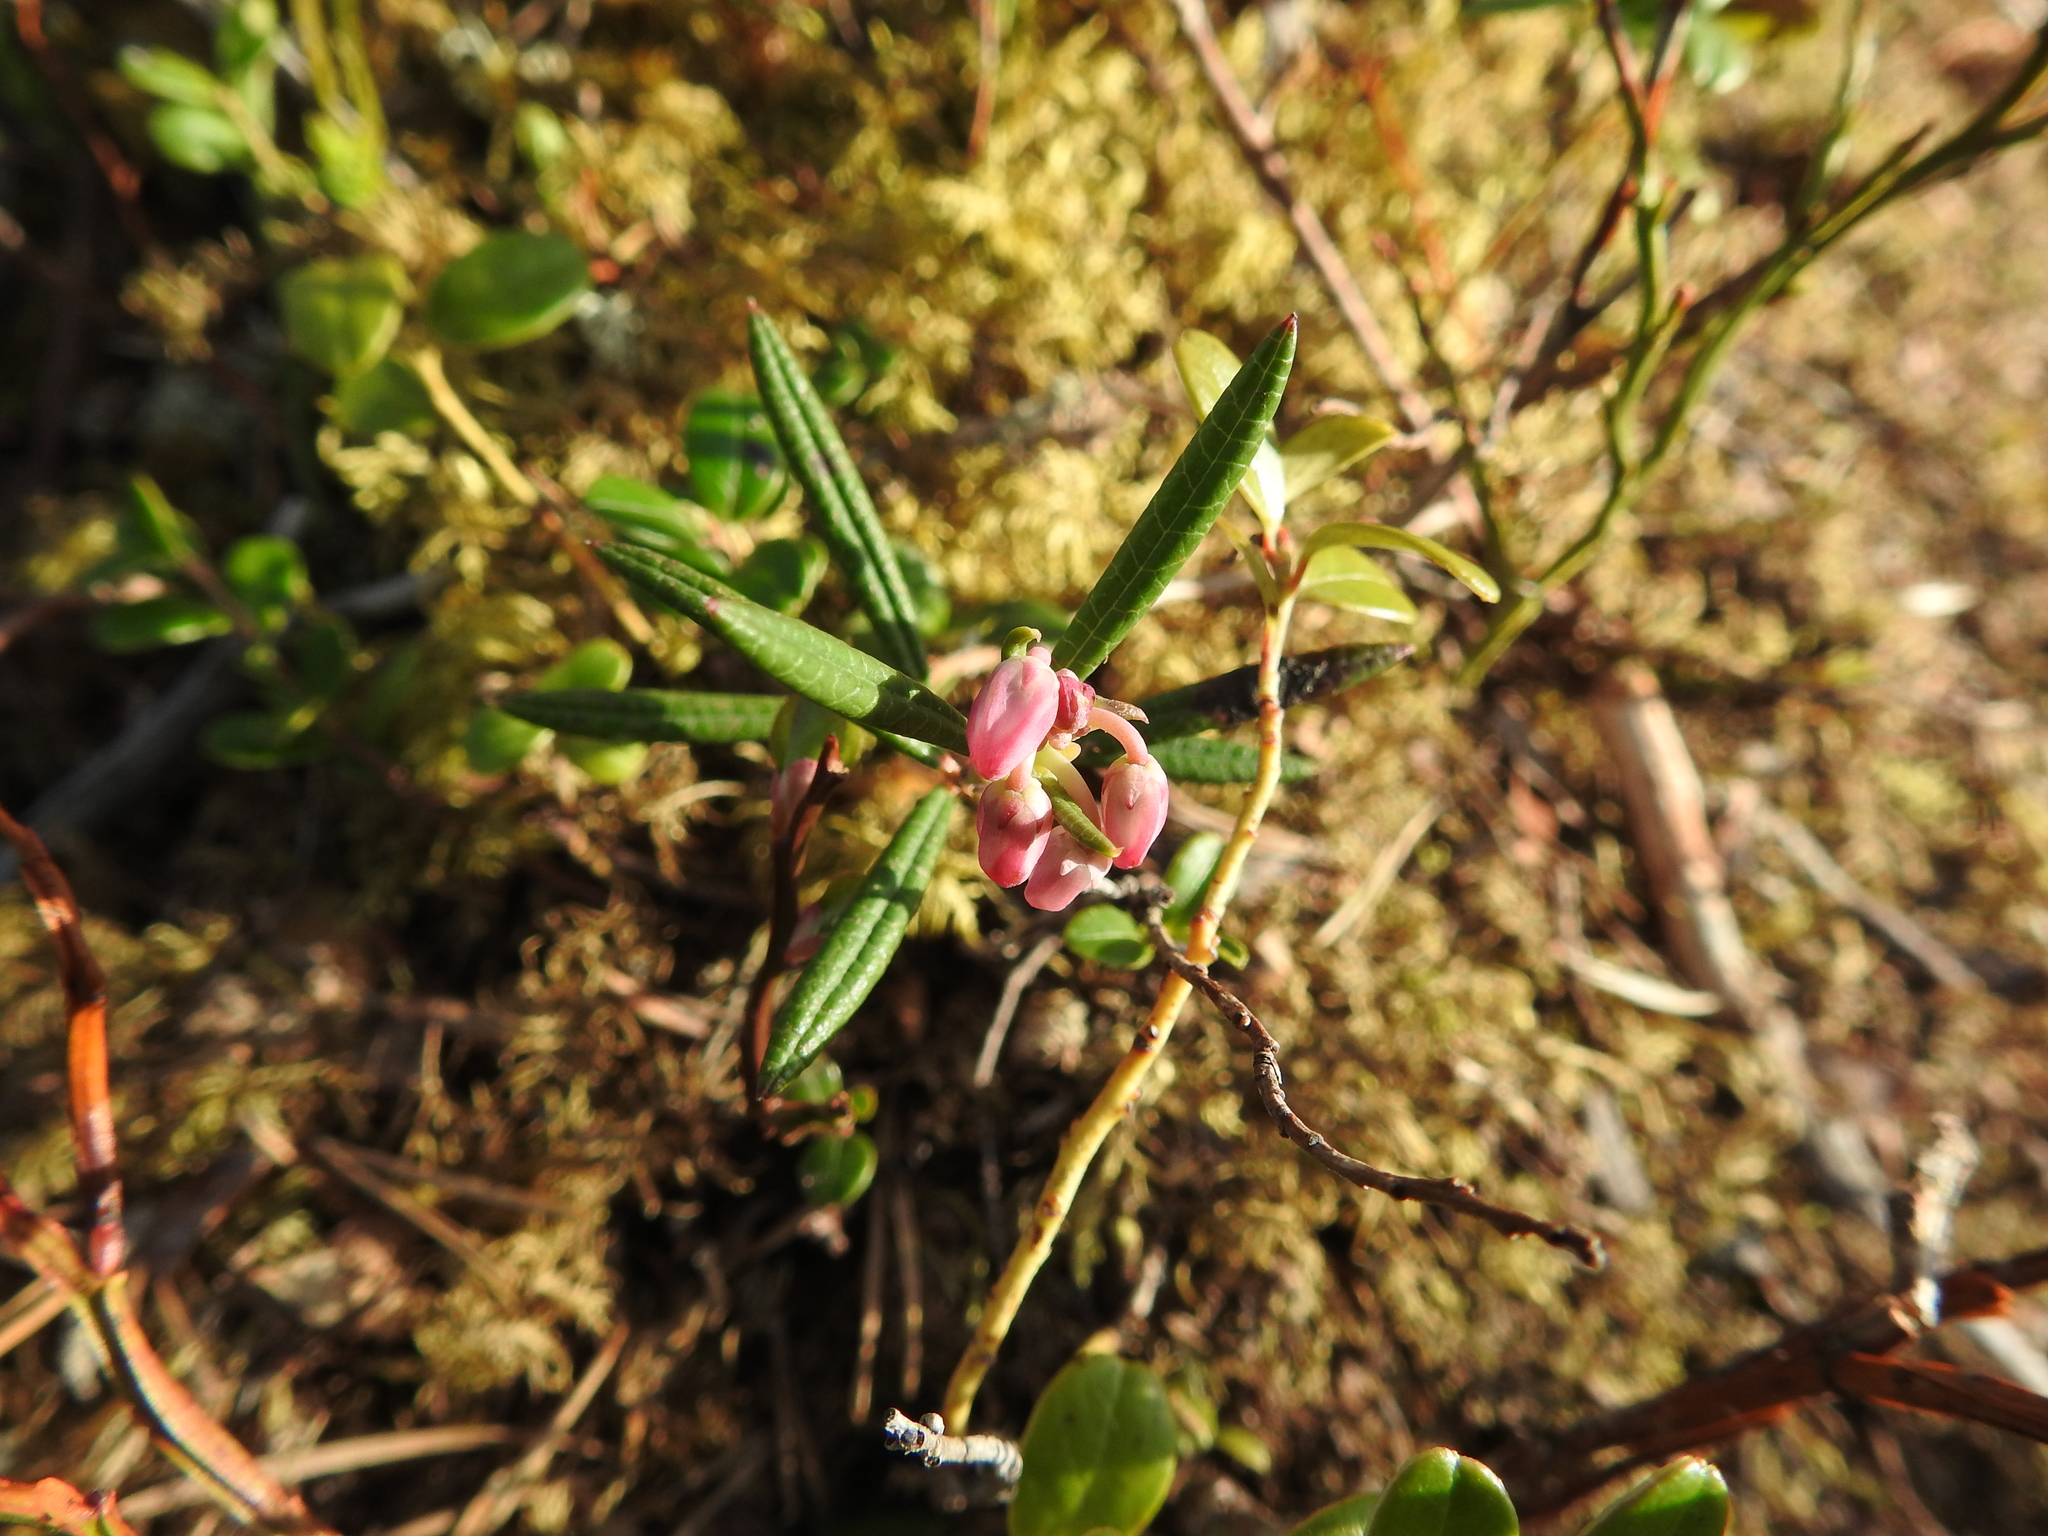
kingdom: Plantae
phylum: Tracheophyta
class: Magnoliopsida
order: Ericales
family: Ericaceae
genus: Andromeda
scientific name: Andromeda polifolia
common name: Bog-rosemary
